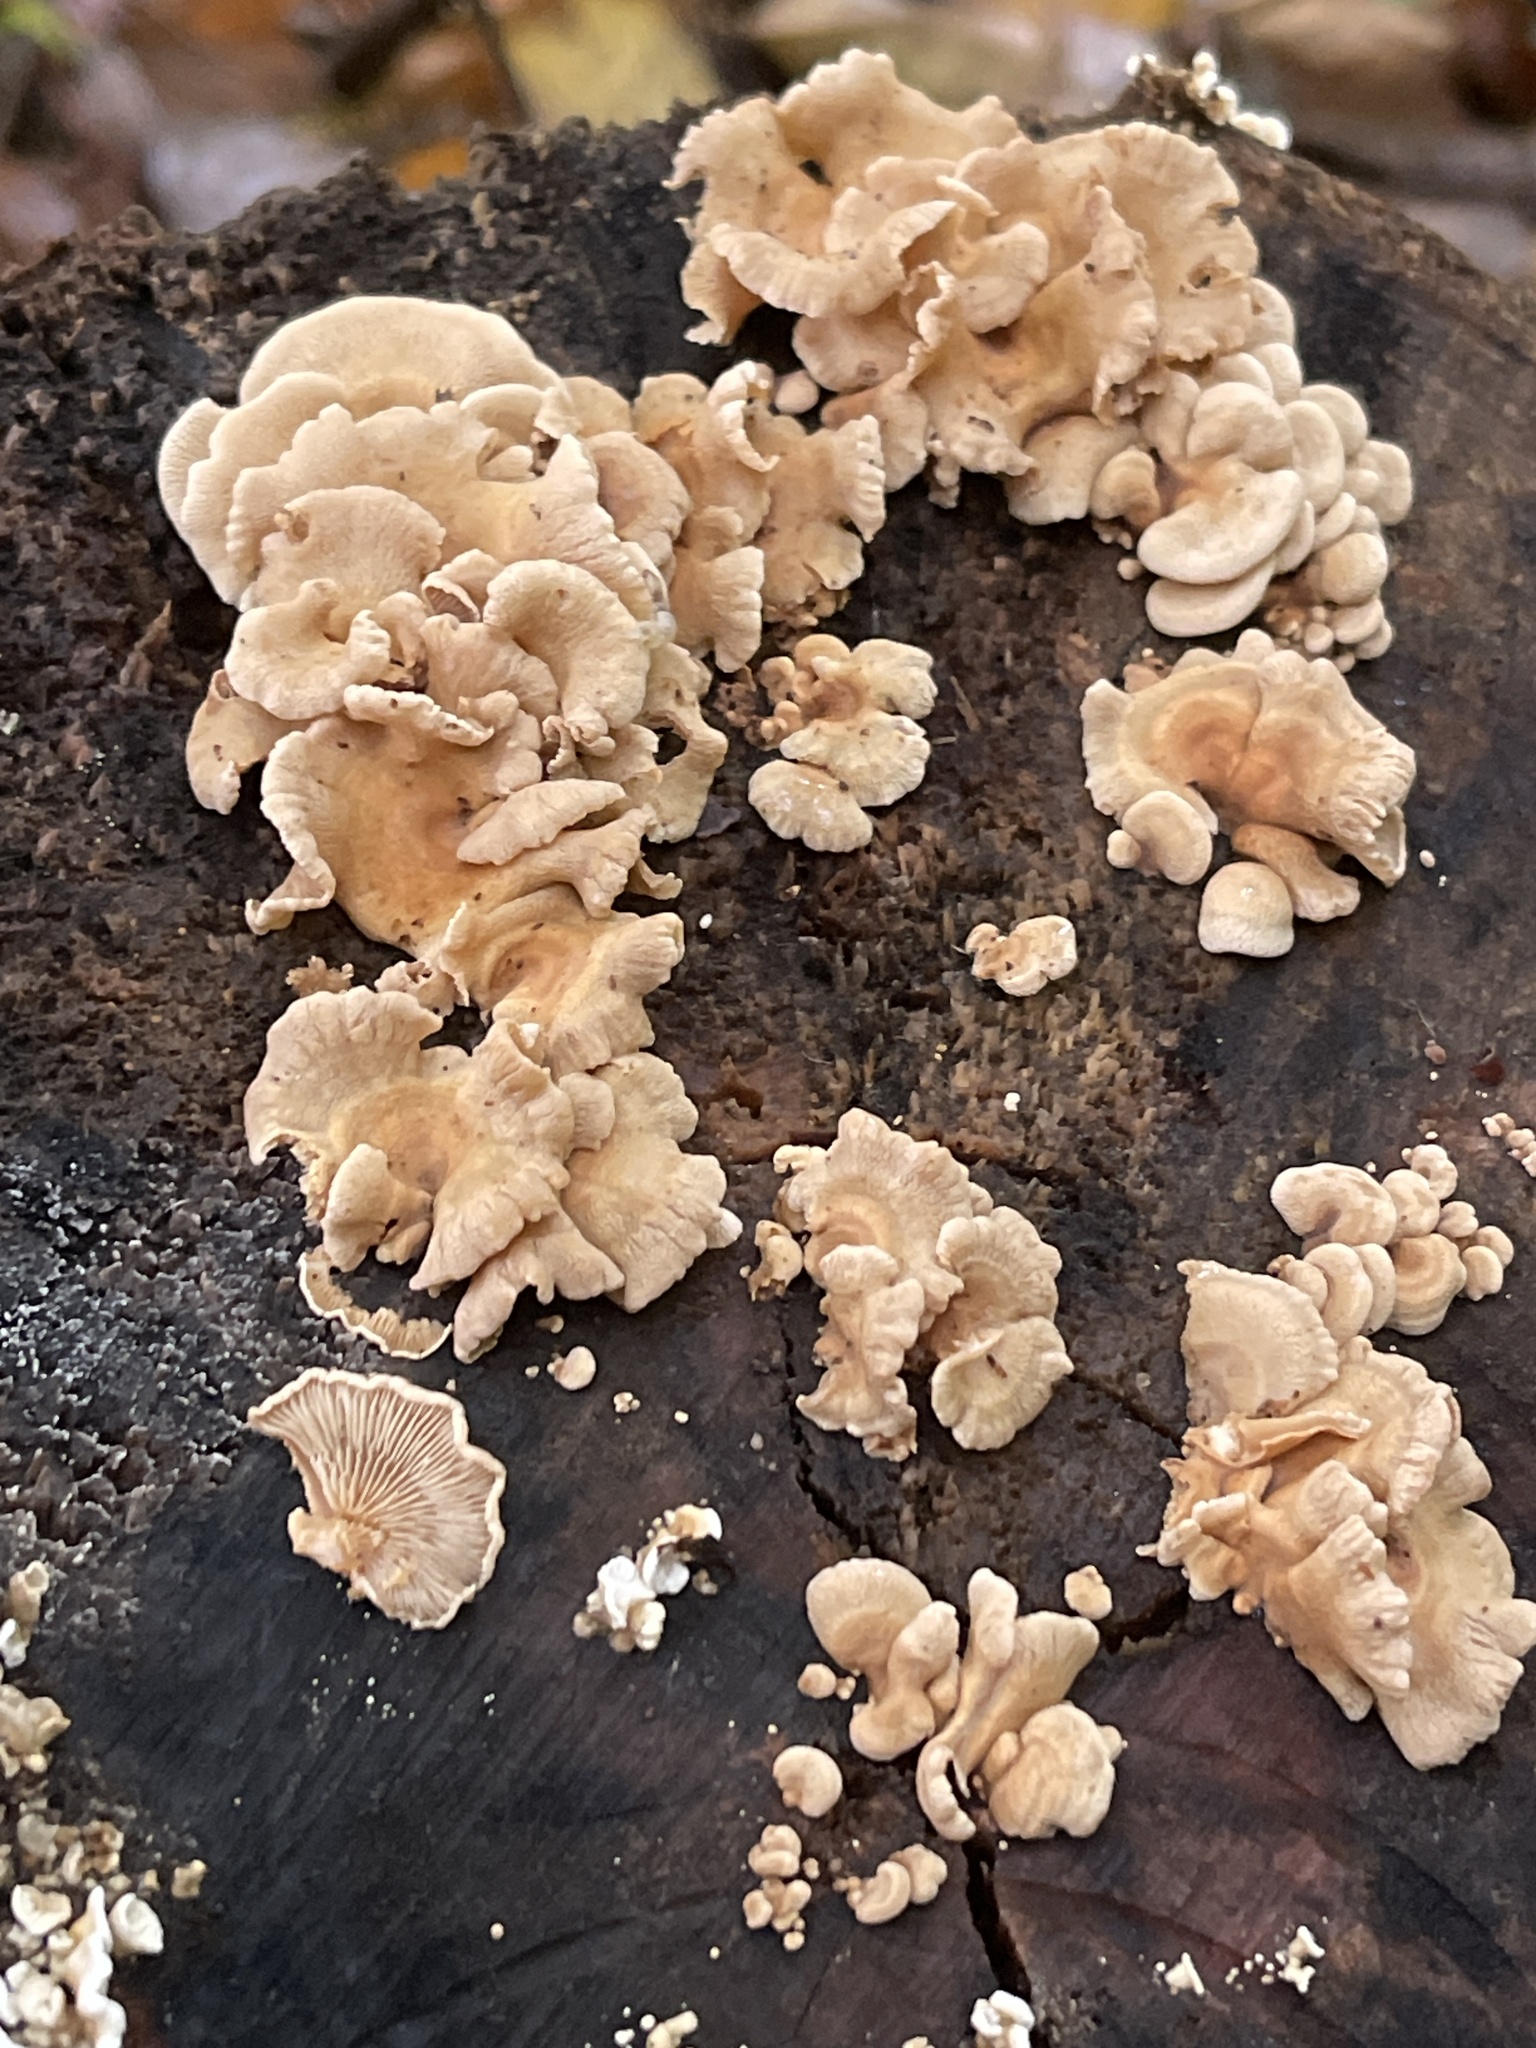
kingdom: Fungi
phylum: Basidiomycota
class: Agaricomycetes
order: Agaricales
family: Mycenaceae
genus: Panellus
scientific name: Panellus stipticus
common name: Bitter oysterling
